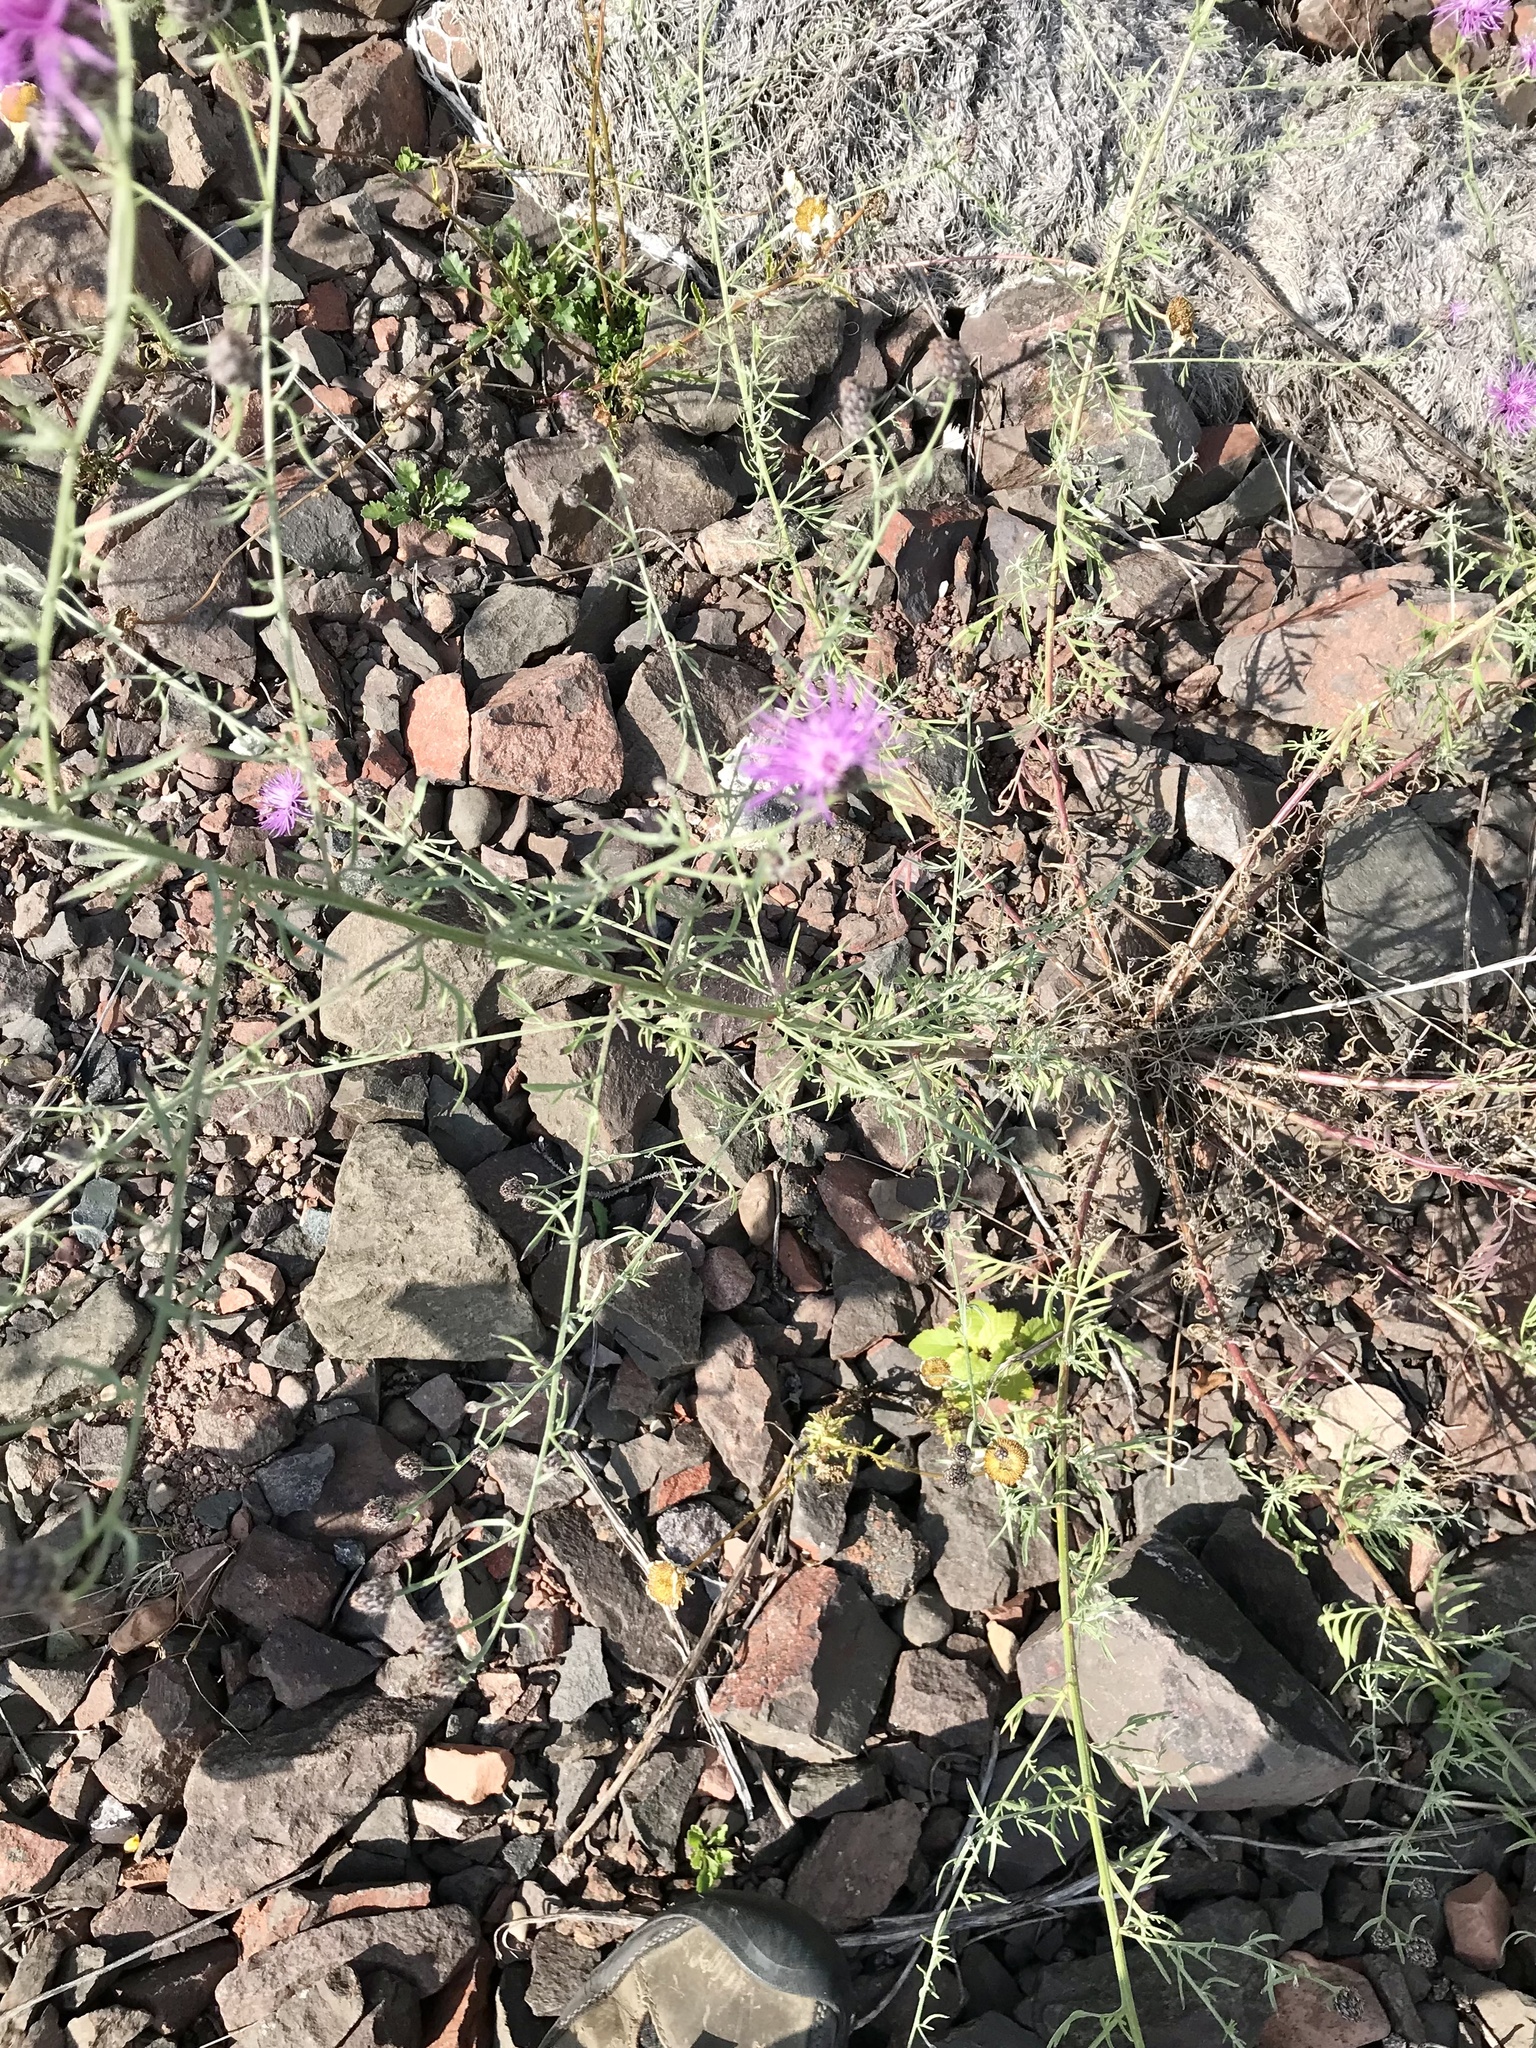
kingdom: Plantae
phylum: Tracheophyta
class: Magnoliopsida
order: Asterales
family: Asteraceae
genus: Centaurea
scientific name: Centaurea stoebe
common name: Spotted knapweed
